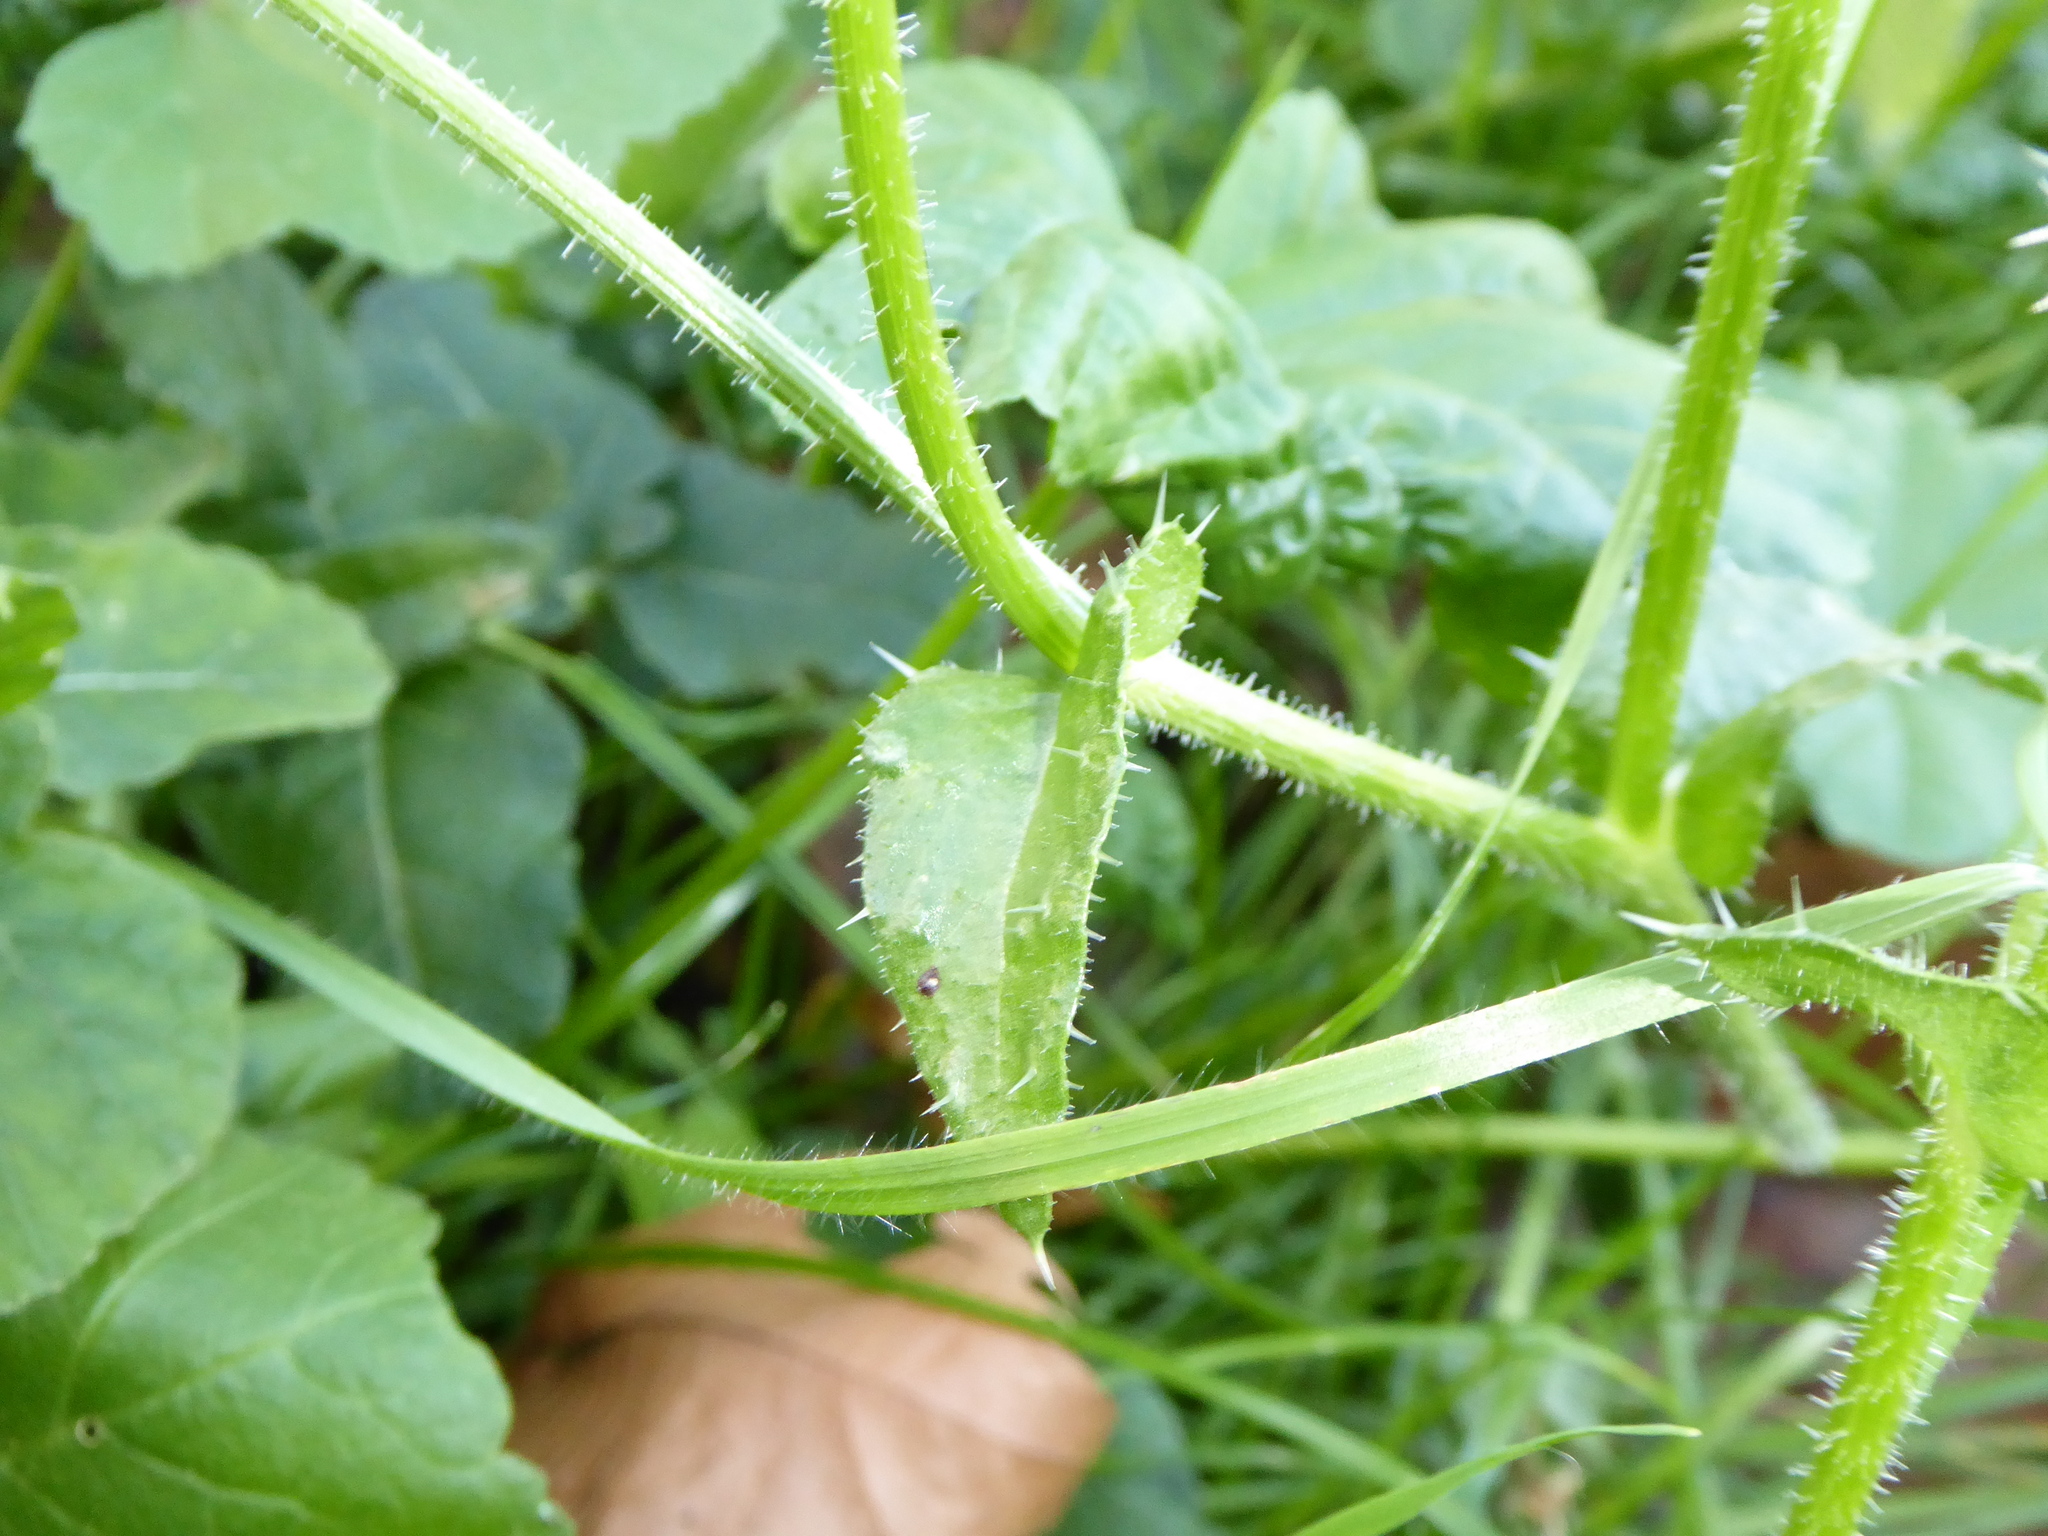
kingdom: Plantae
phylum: Tracheophyta
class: Magnoliopsida
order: Asterales
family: Asteraceae
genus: Helminthotheca
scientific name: Helminthotheca echioides
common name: Ox-tongue
